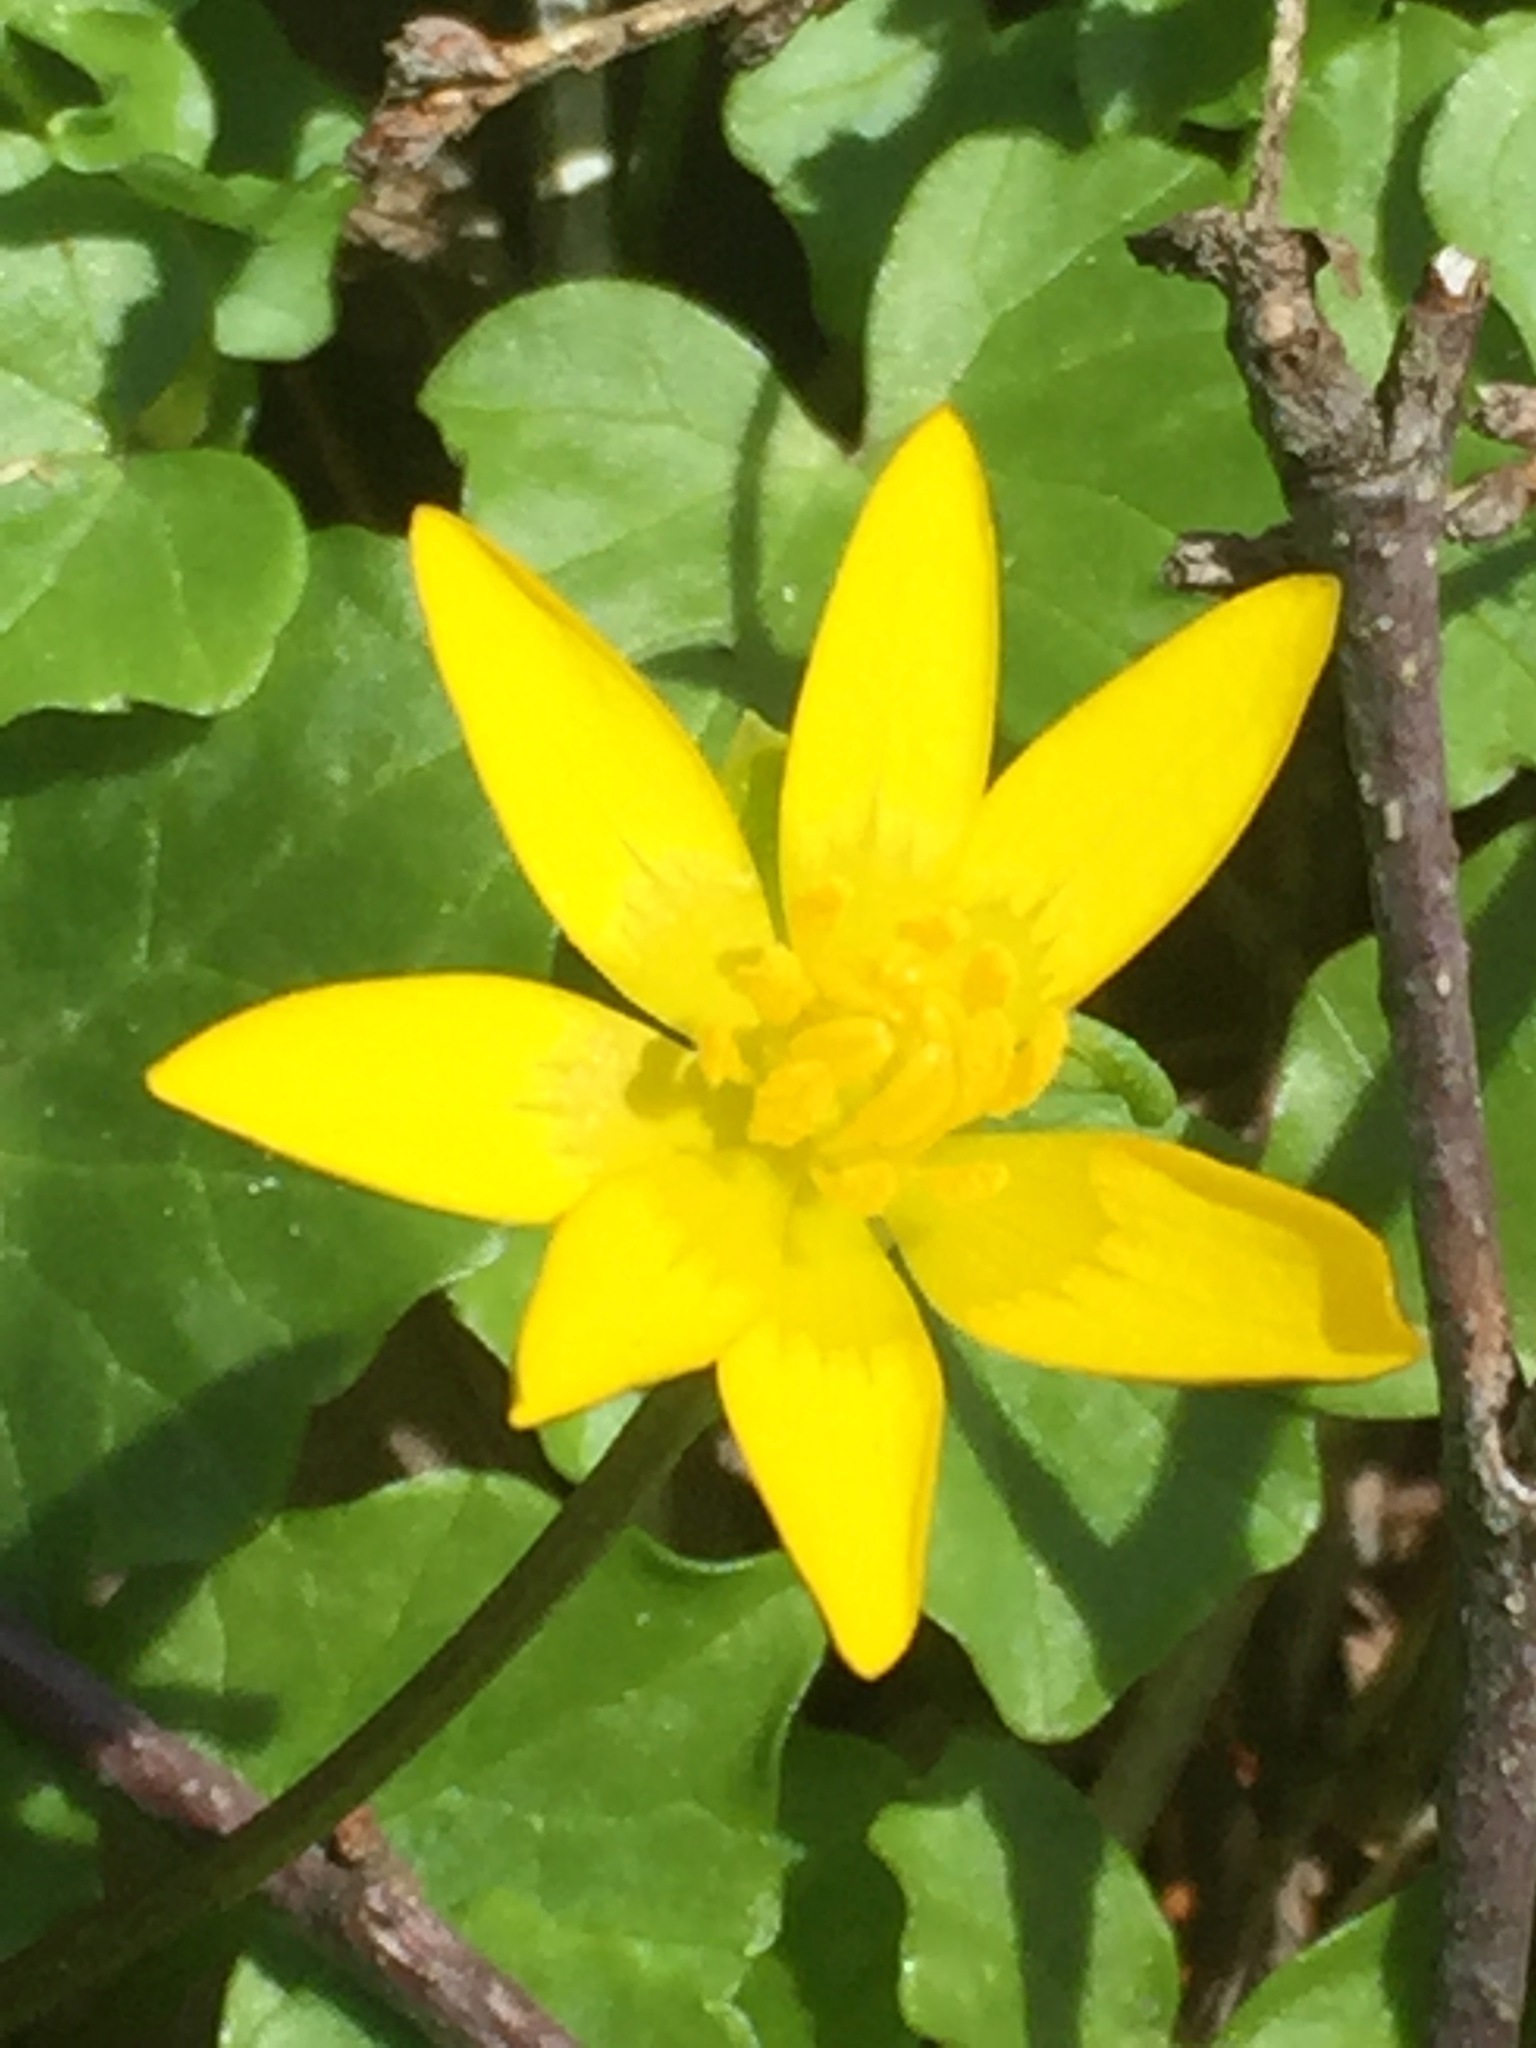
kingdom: Plantae
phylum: Tracheophyta
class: Magnoliopsida
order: Ranunculales
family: Ranunculaceae
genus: Ficaria
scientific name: Ficaria verna
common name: Lesser celandine
